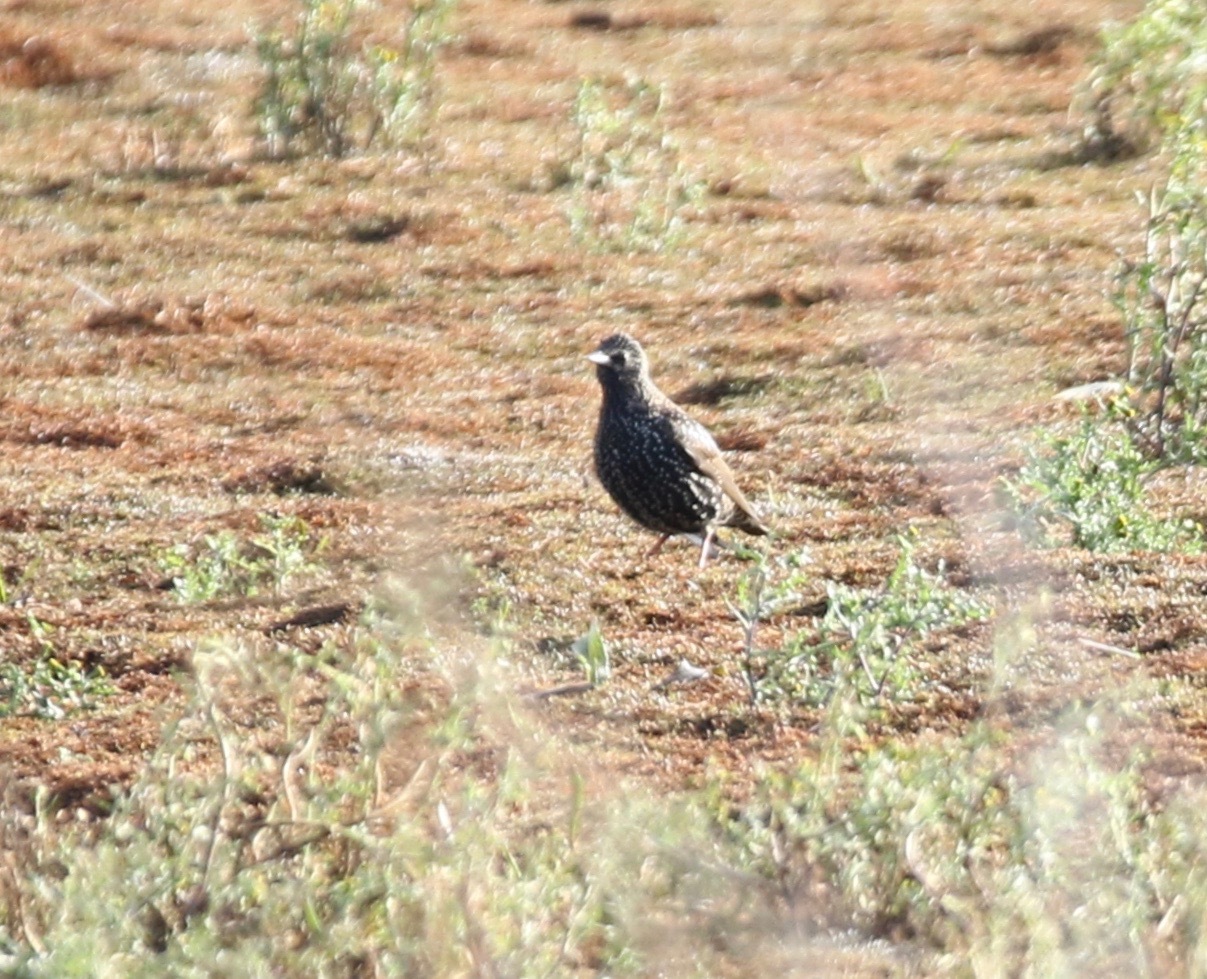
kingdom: Animalia
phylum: Chordata
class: Aves
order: Passeriformes
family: Sturnidae
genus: Sturnus
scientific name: Sturnus vulgaris
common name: Common starling
